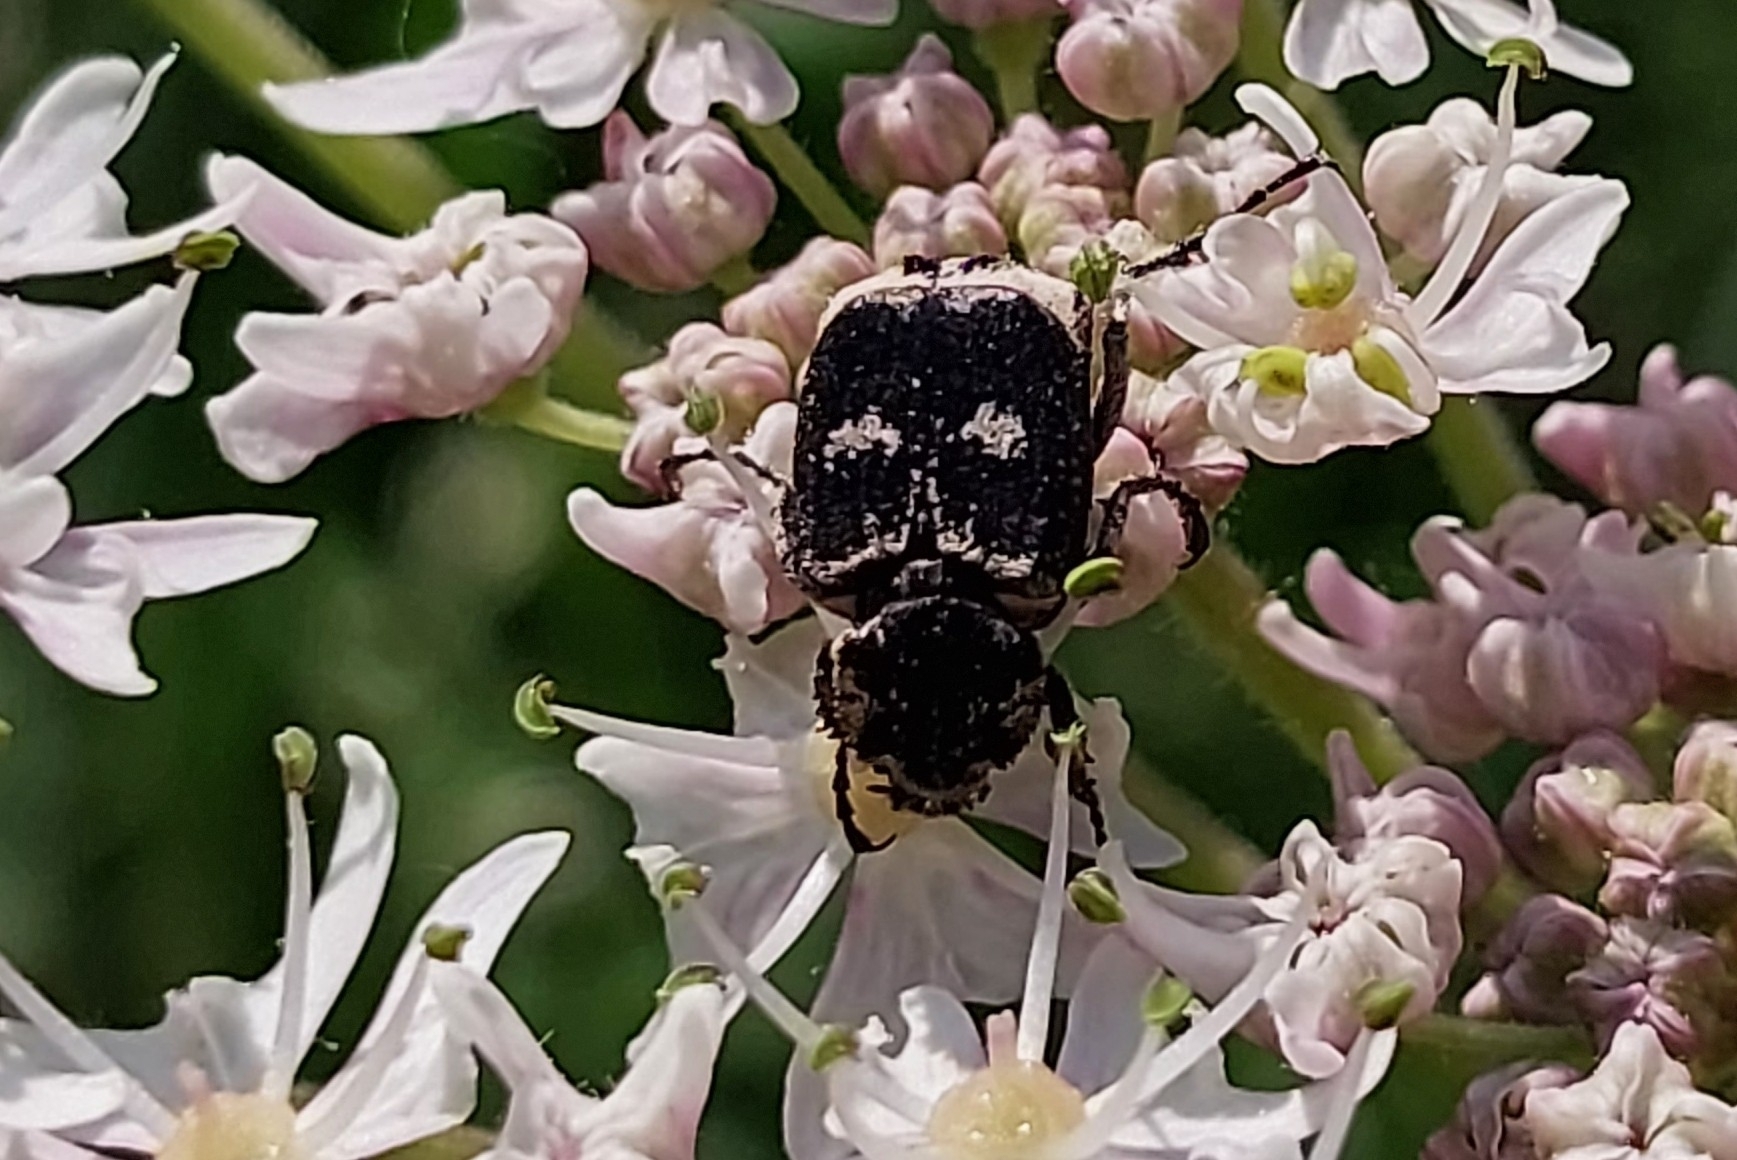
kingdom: Animalia
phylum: Arthropoda
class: Insecta
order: Coleoptera
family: Scarabaeidae
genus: Valgus
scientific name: Valgus hemipterus
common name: Bug flower chafer
